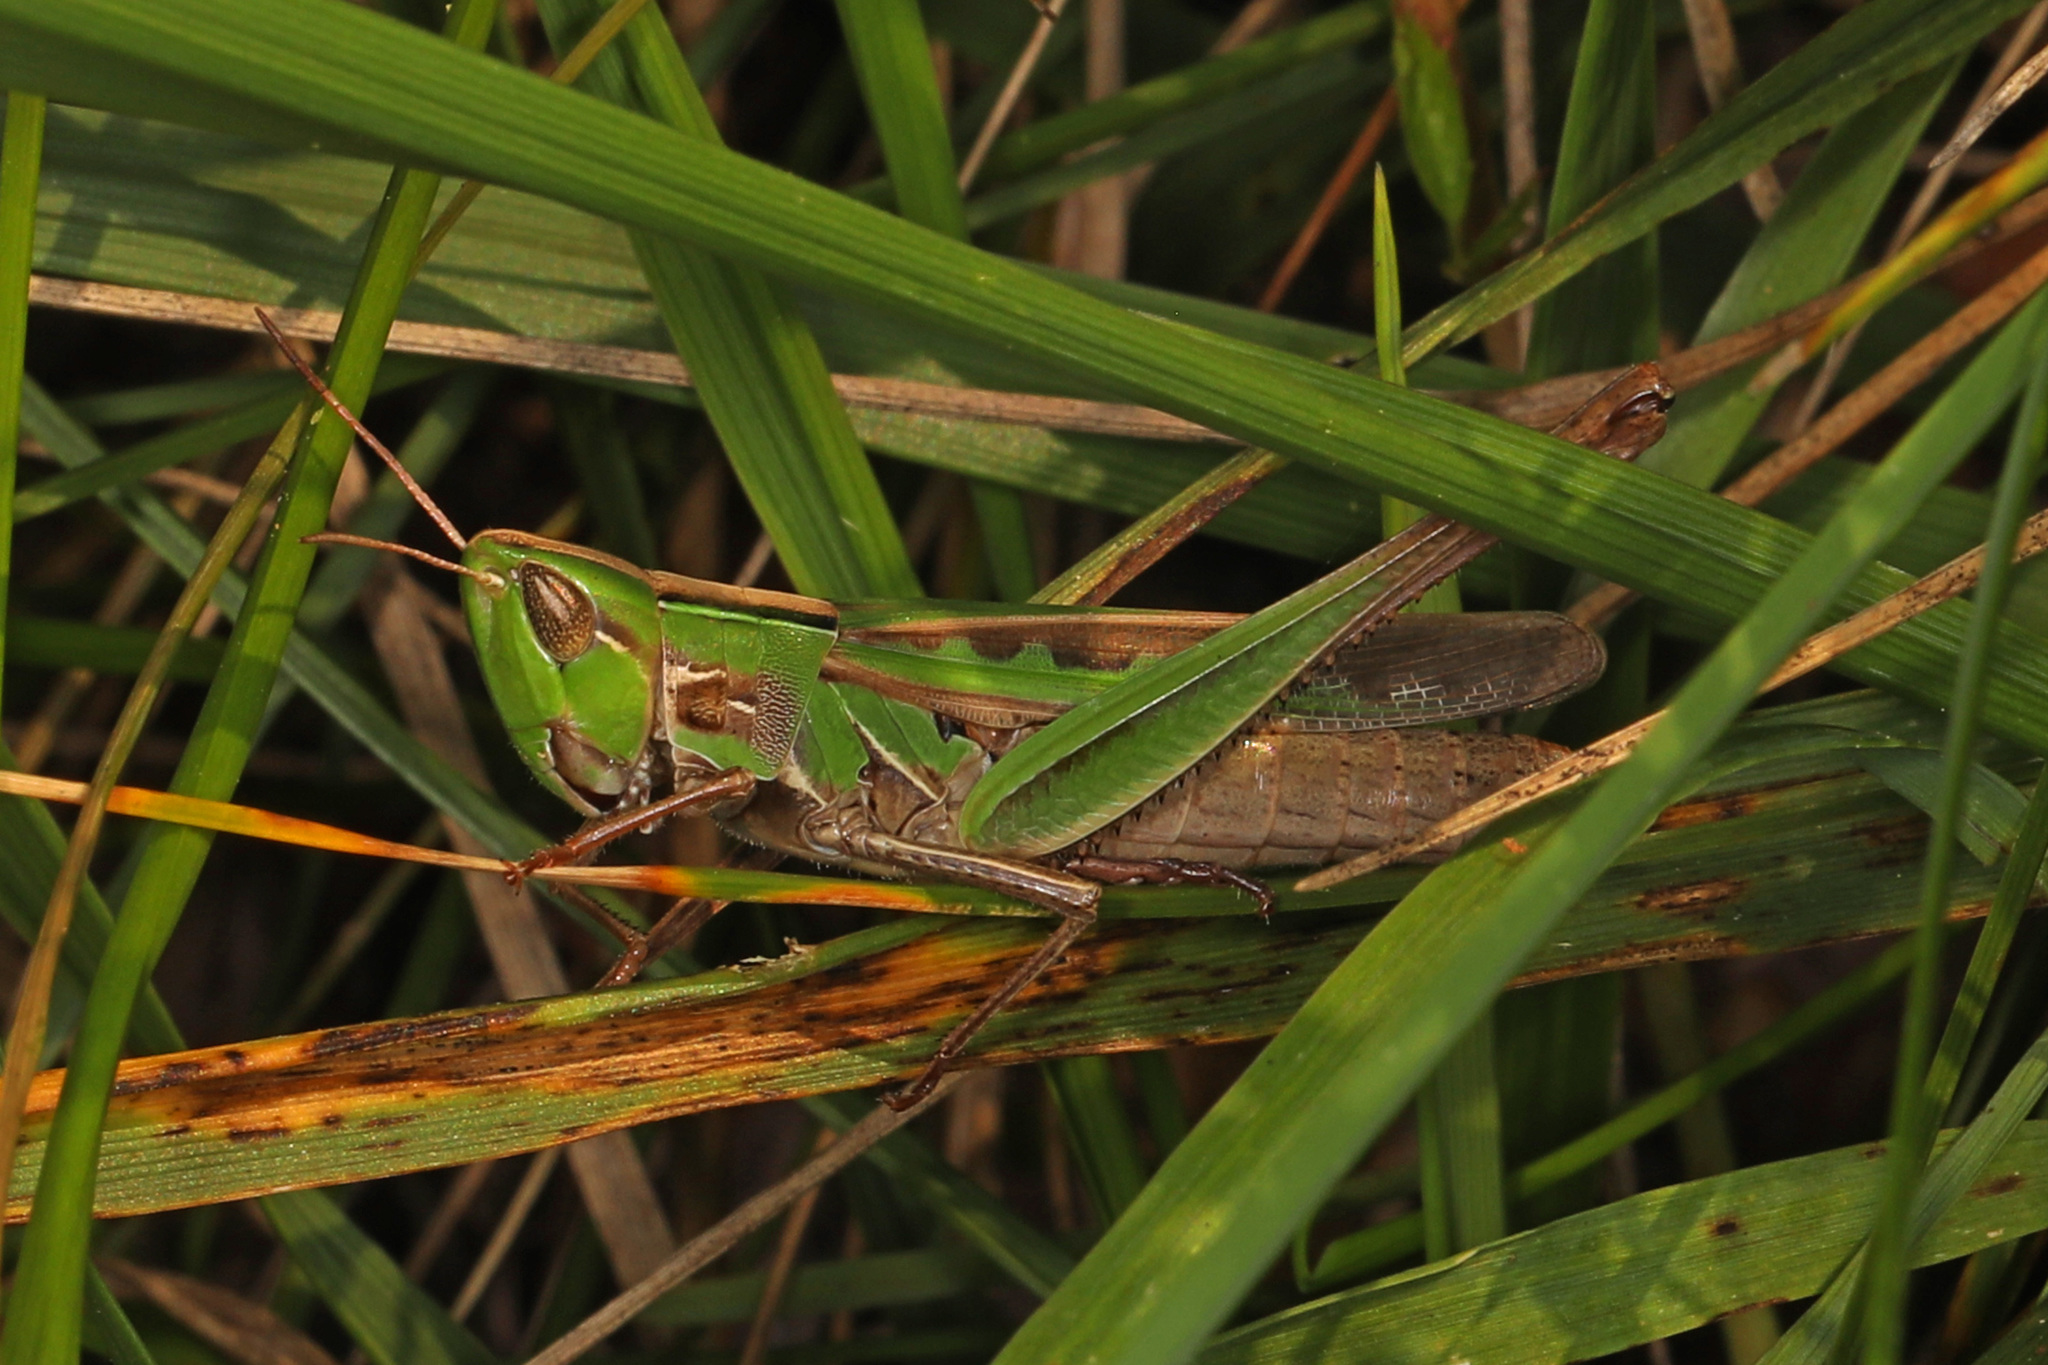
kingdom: Animalia
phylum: Arthropoda
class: Insecta
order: Orthoptera
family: Acrididae
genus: Syrbula
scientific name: Syrbula admirabilis
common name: Handsome grasshopper
